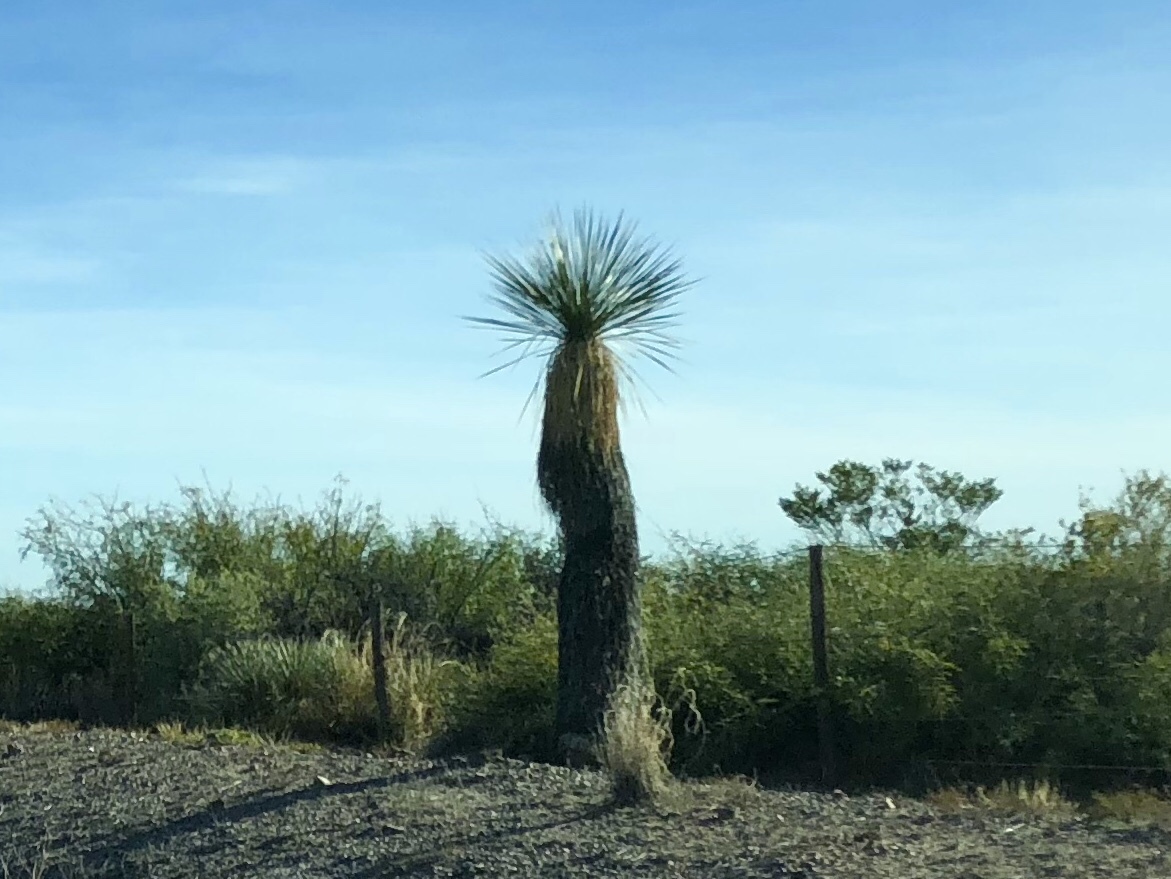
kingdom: Plantae
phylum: Tracheophyta
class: Liliopsida
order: Asparagales
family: Asparagaceae
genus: Yucca
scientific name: Yucca elata
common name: Palmella
